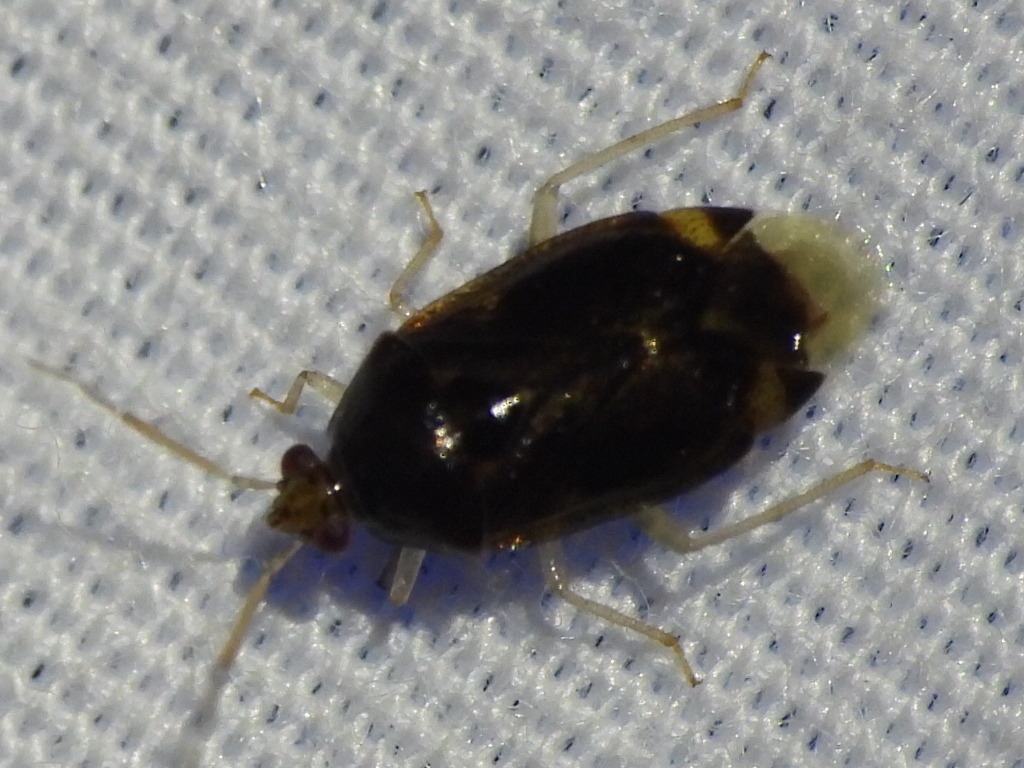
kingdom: Animalia
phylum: Arthropoda
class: Insecta
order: Hemiptera
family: Miridae
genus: Deraeocoris
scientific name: Deraeocoris davisi
